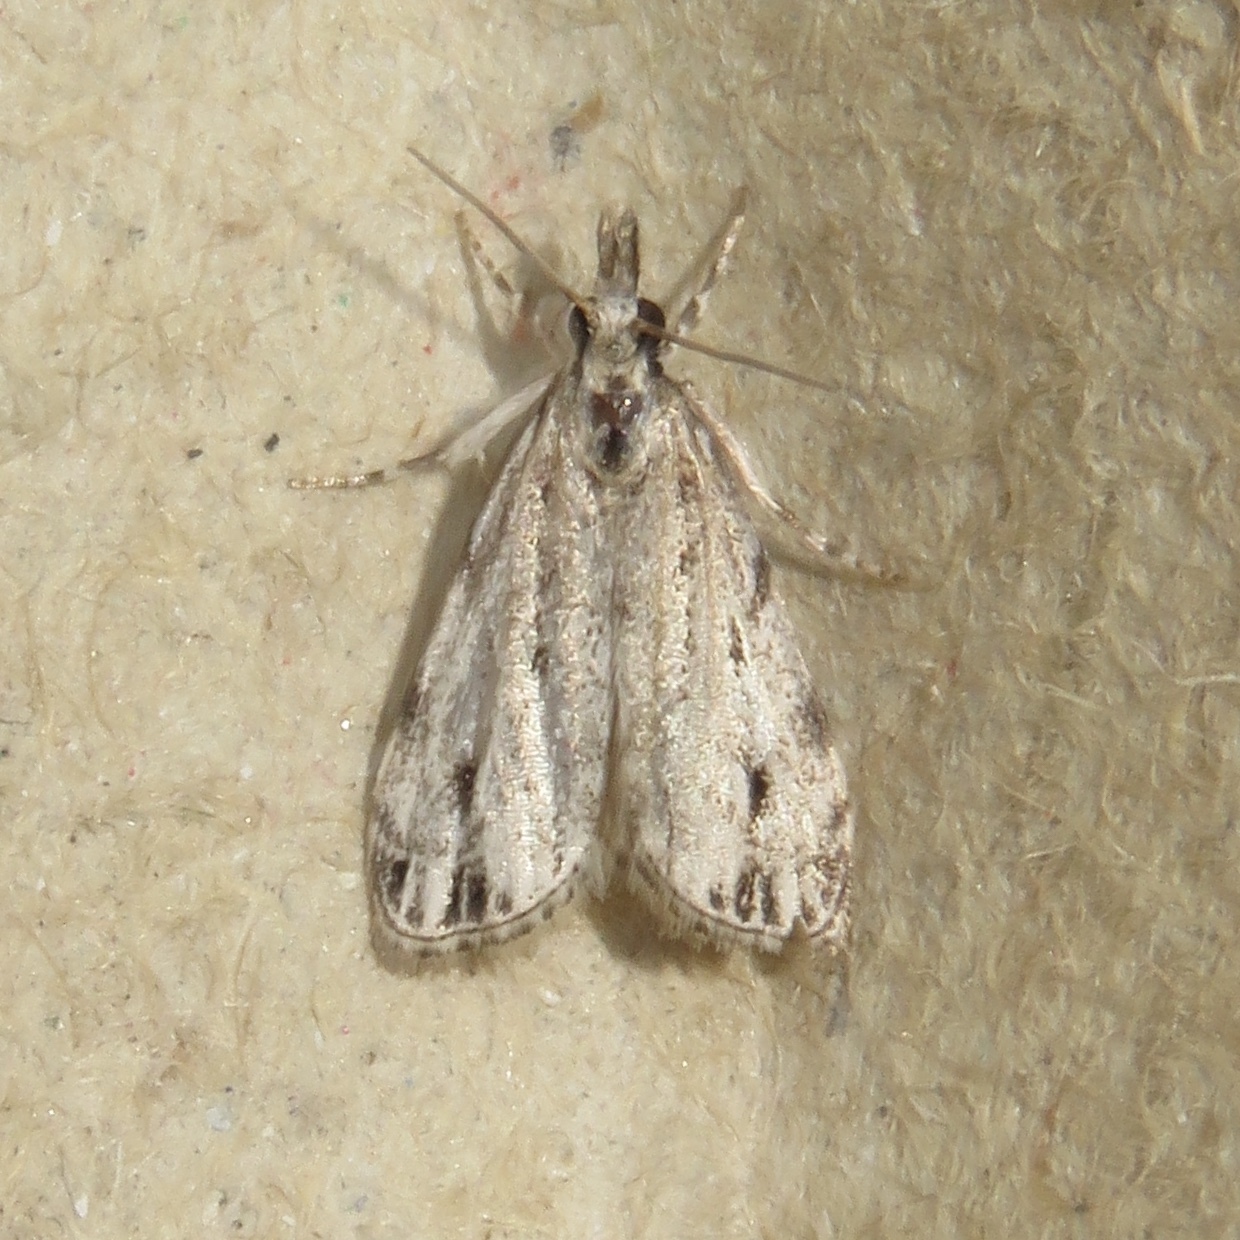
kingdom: Animalia
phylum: Arthropoda
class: Insecta
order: Lepidoptera
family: Crambidae
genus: Eudonia
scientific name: Eudonia strigalis
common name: Striped eudonia moth
